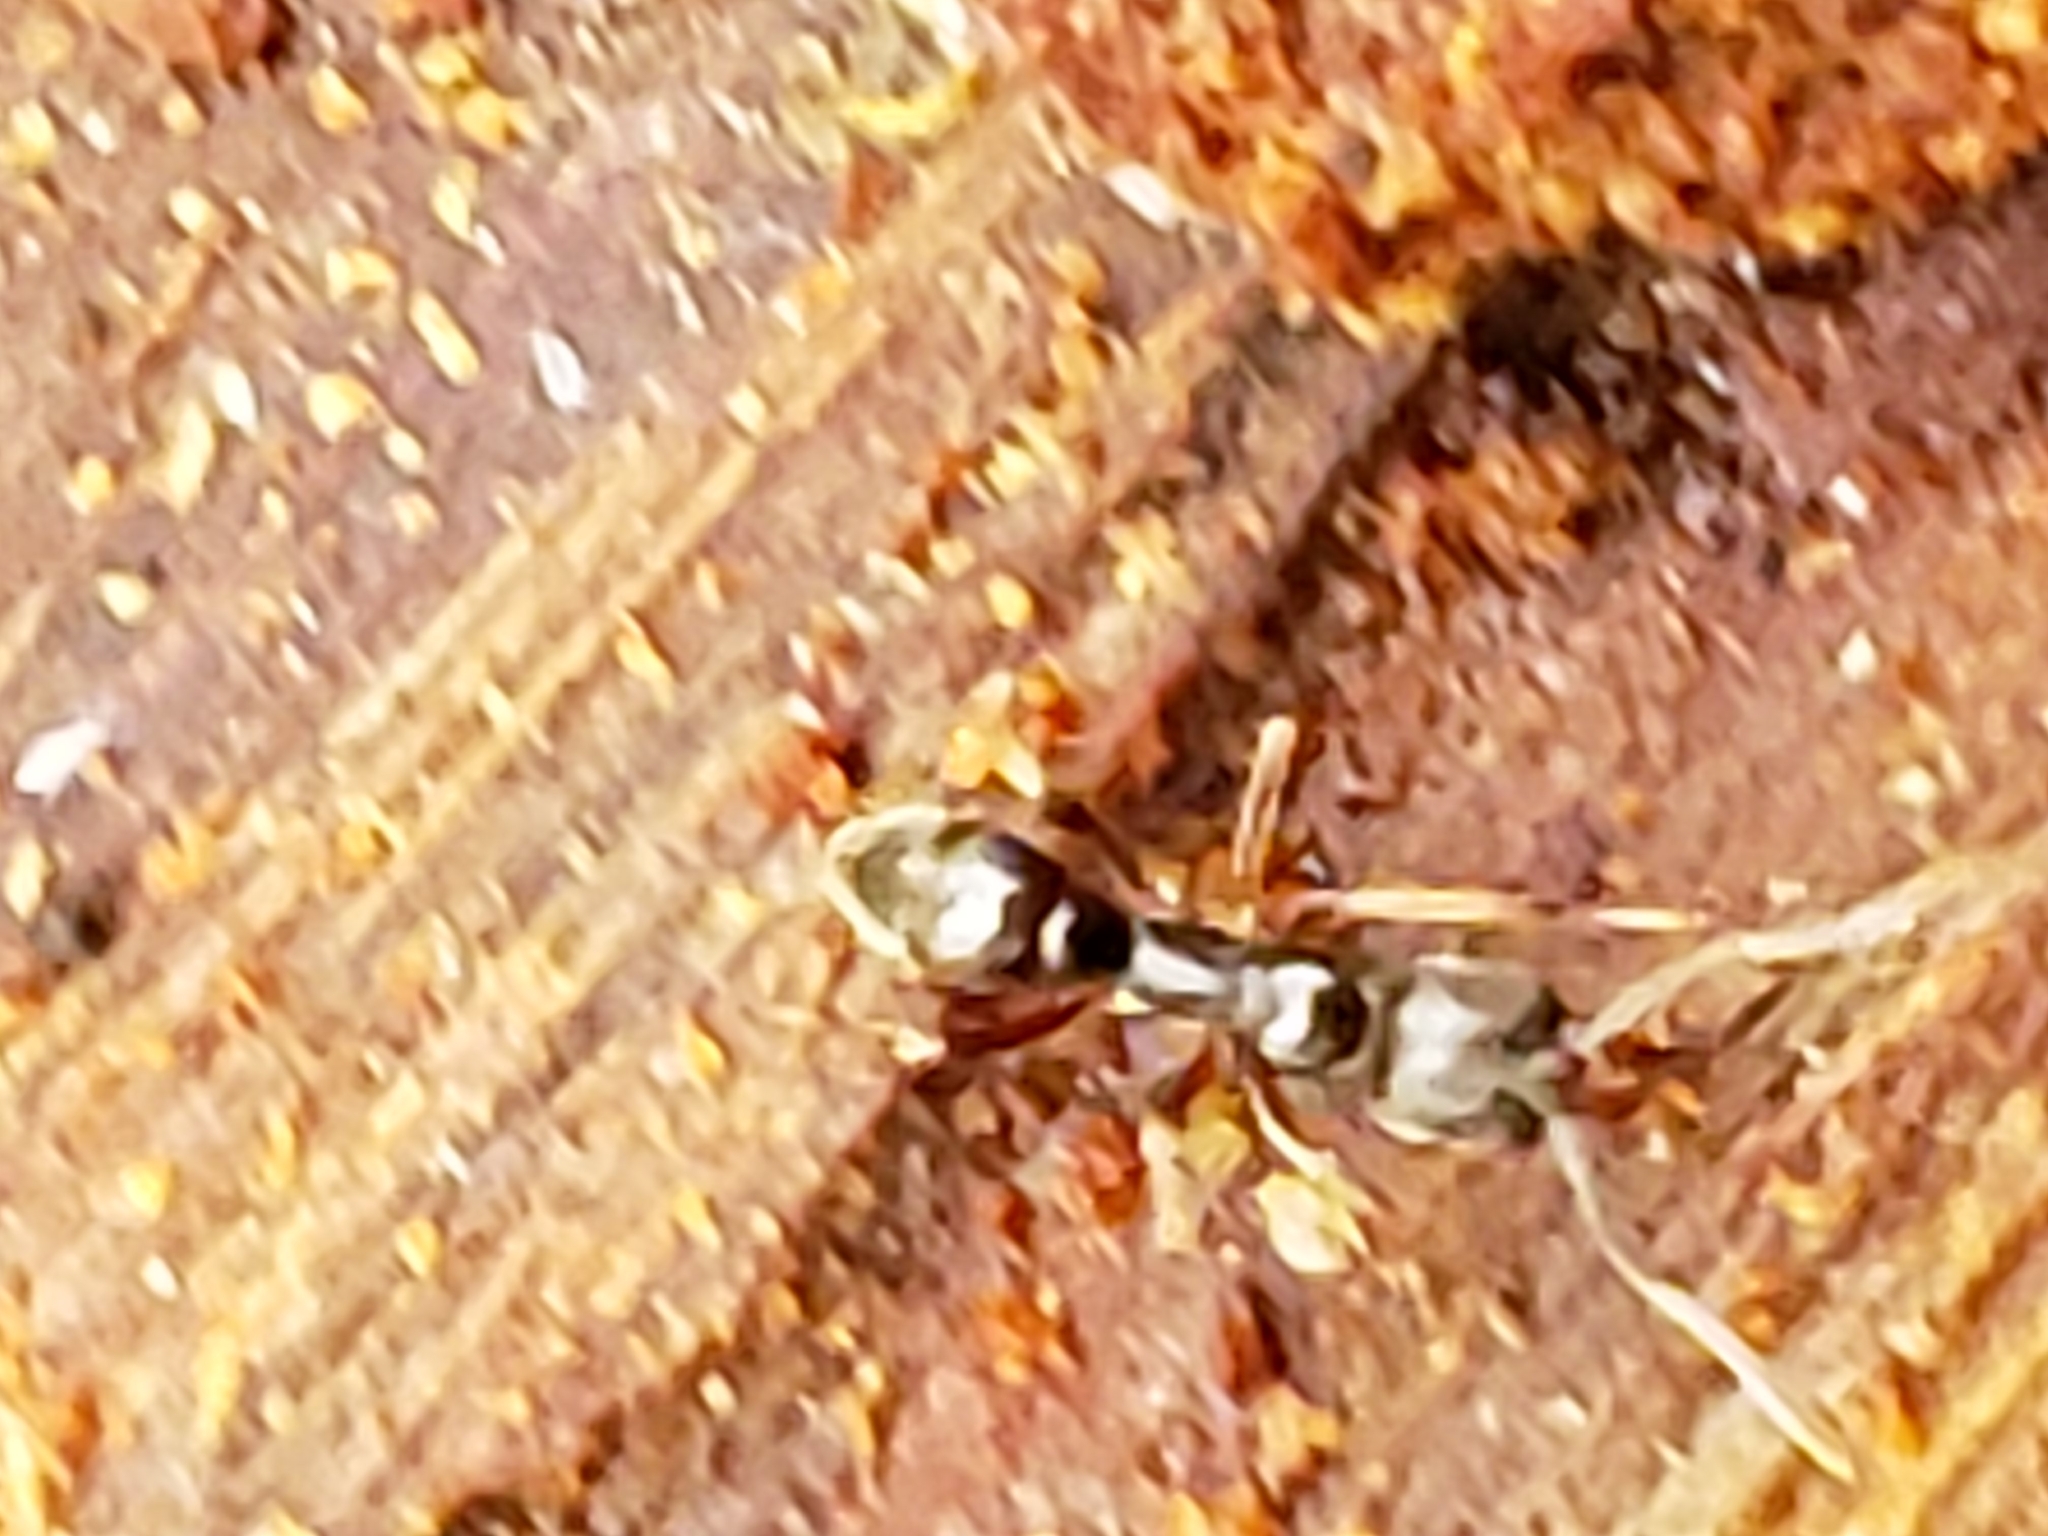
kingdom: Animalia
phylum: Arthropoda
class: Insecta
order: Hymenoptera
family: Formicidae
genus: Pachycondyla
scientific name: Pachycondyla chinensis
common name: Asian needle ant
